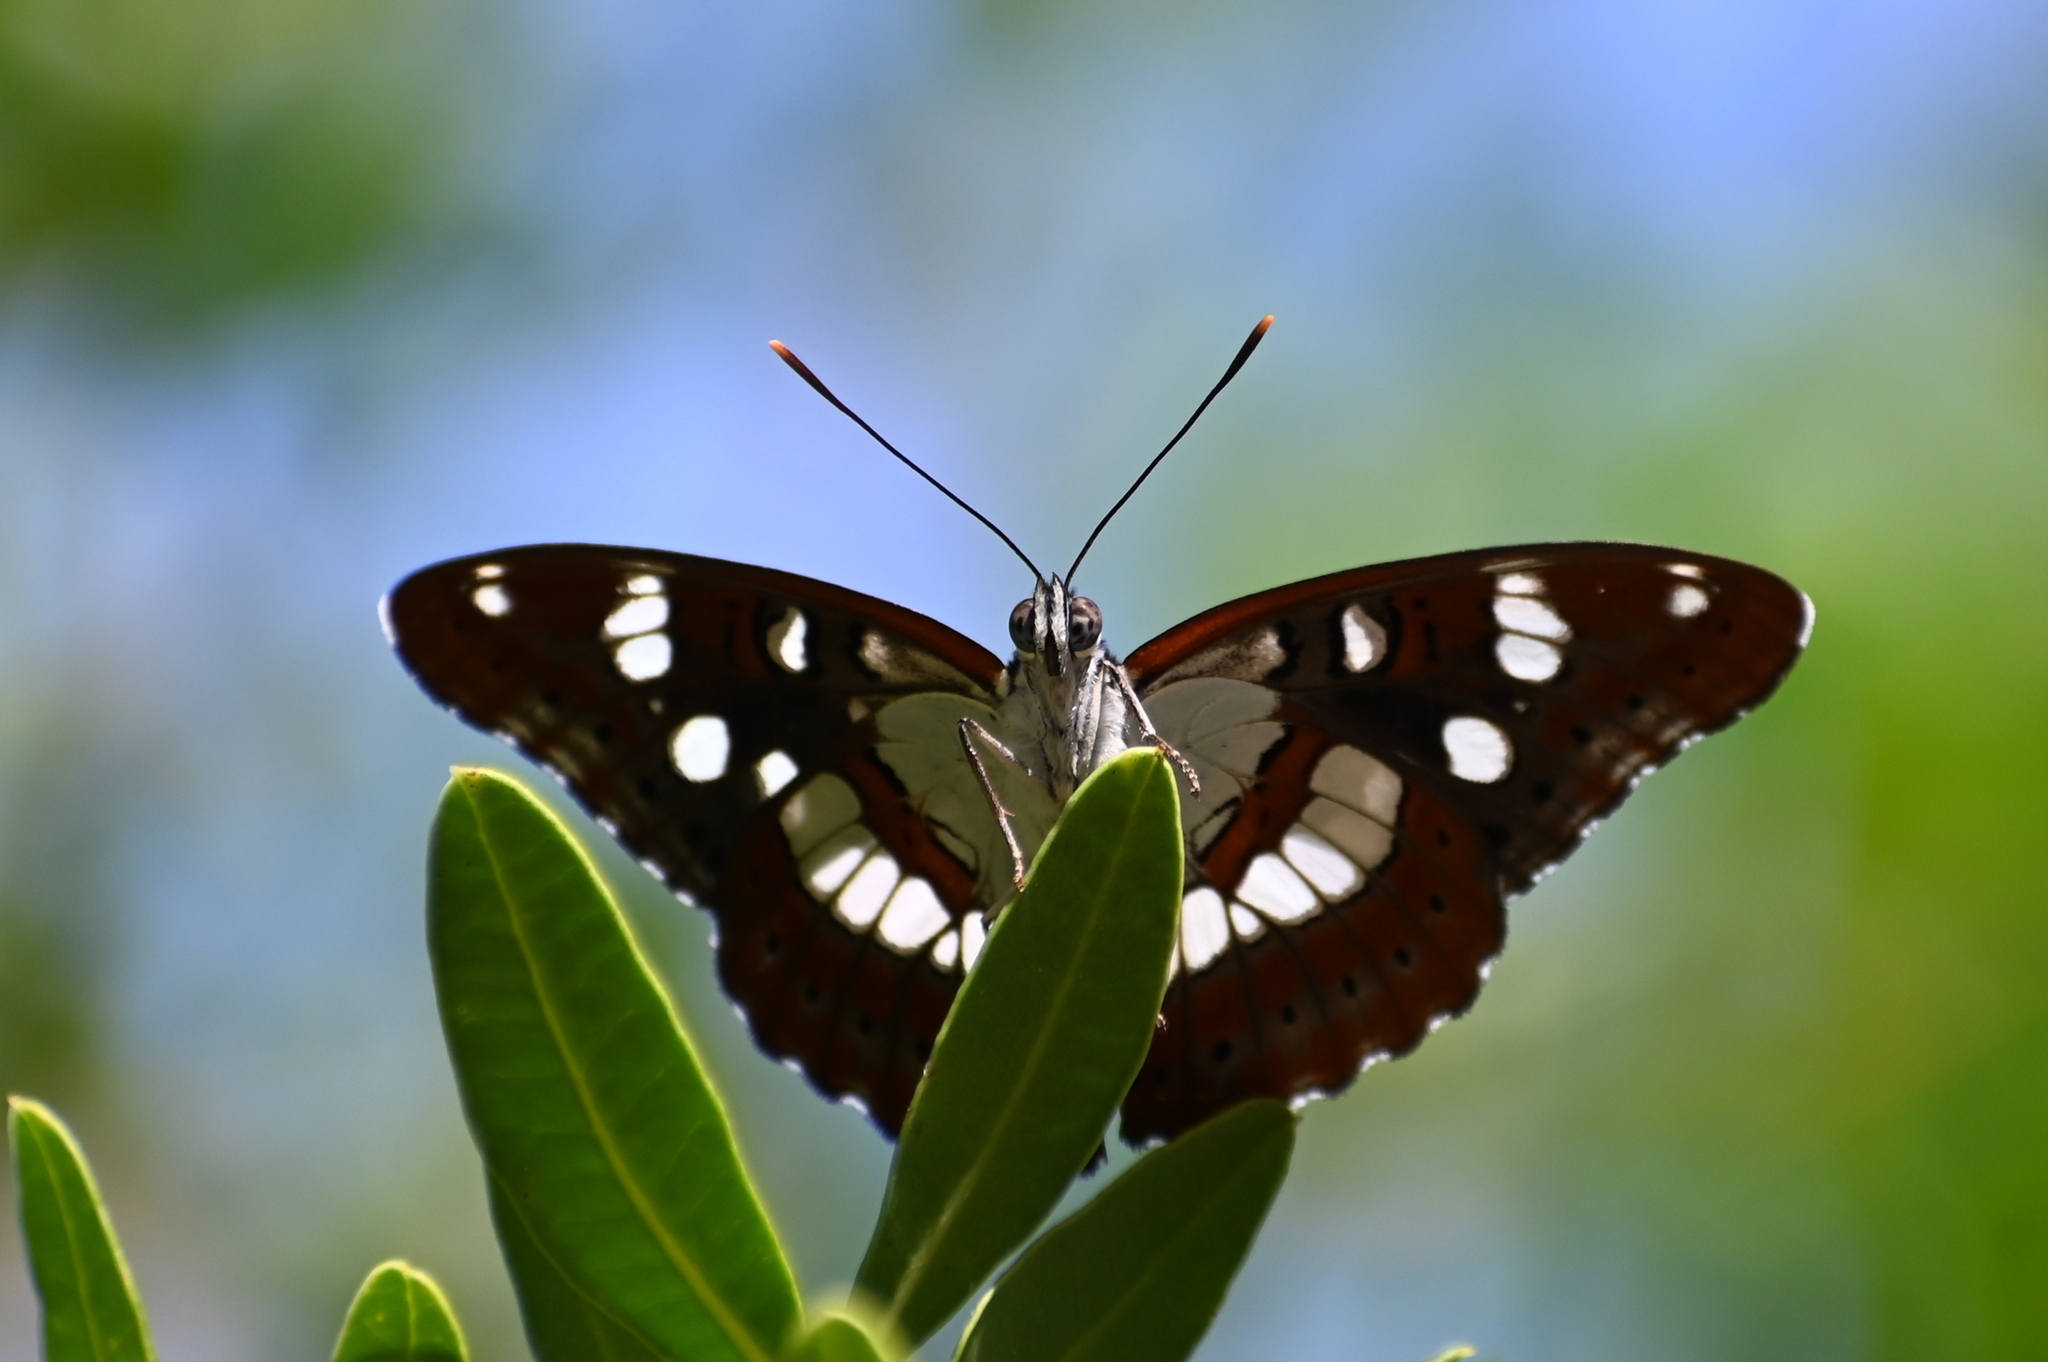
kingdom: Animalia
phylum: Arthropoda
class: Insecta
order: Lepidoptera
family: Nymphalidae
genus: Limenitis
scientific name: Limenitis reducta
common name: Southern white admiral
